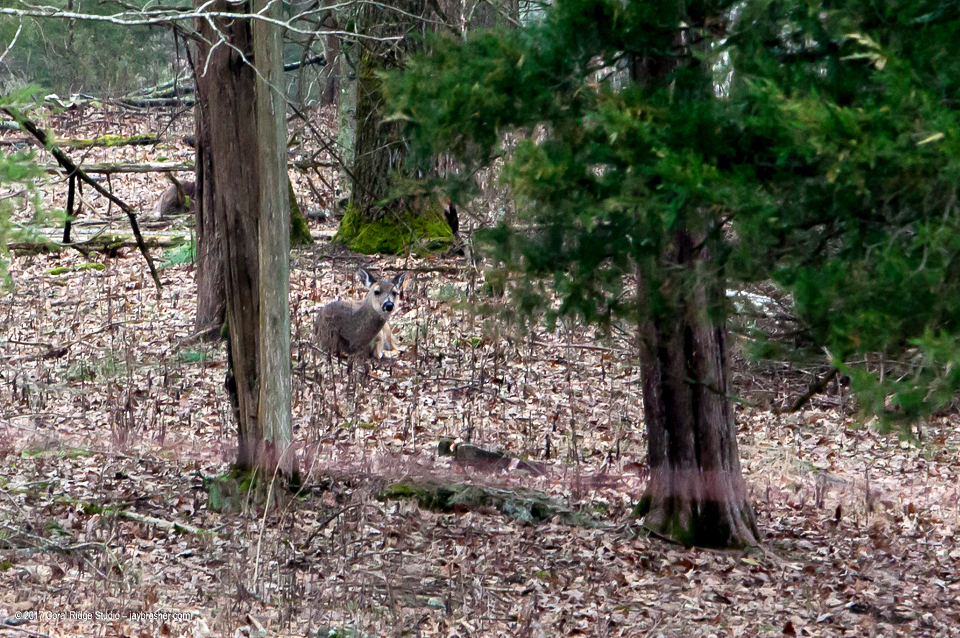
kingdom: Animalia
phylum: Chordata
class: Mammalia
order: Artiodactyla
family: Cervidae
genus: Odocoileus
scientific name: Odocoileus virginianus
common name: White-tailed deer
